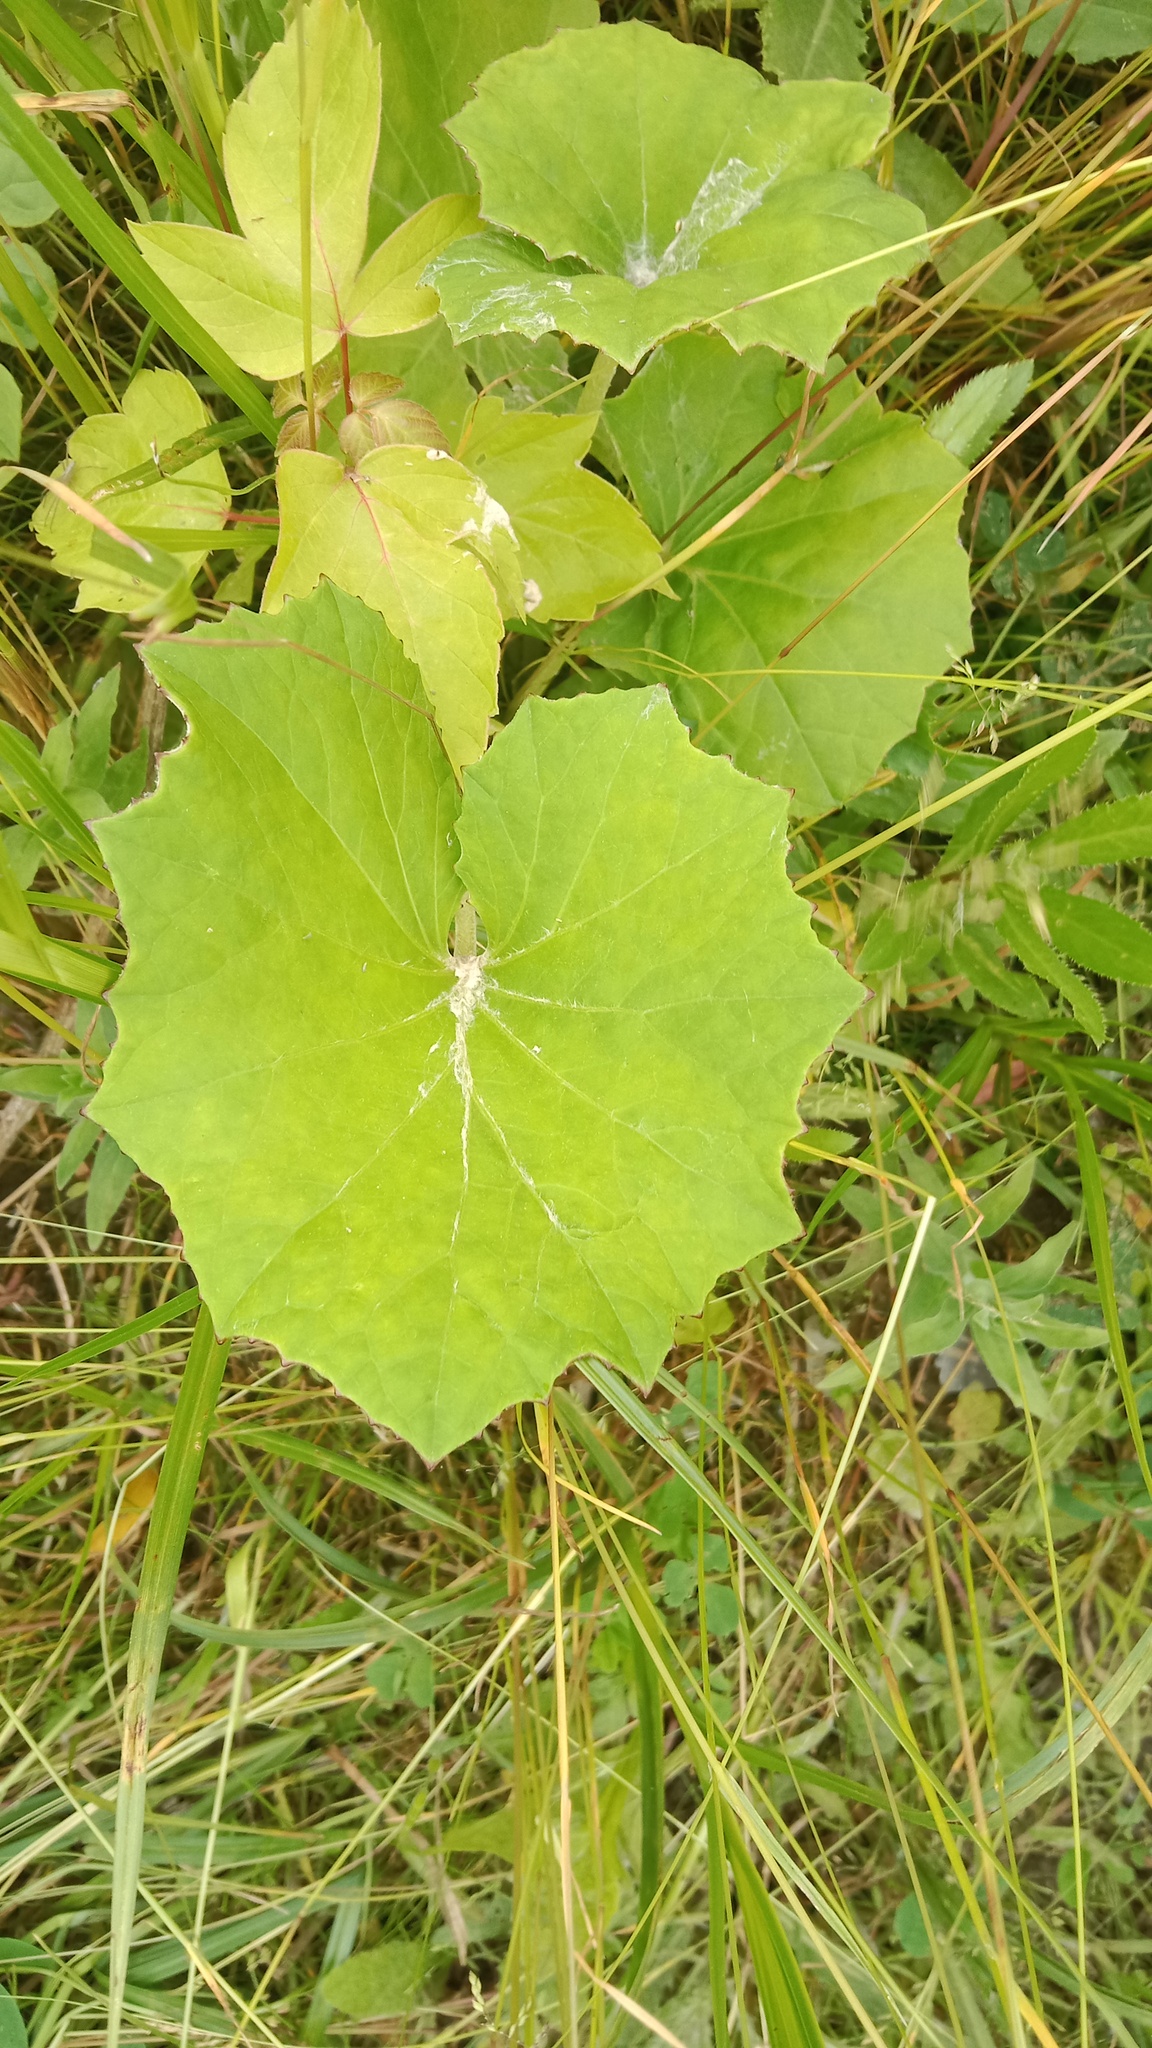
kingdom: Plantae
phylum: Tracheophyta
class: Magnoliopsida
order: Asterales
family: Asteraceae
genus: Tussilago
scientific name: Tussilago farfara
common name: Coltsfoot
